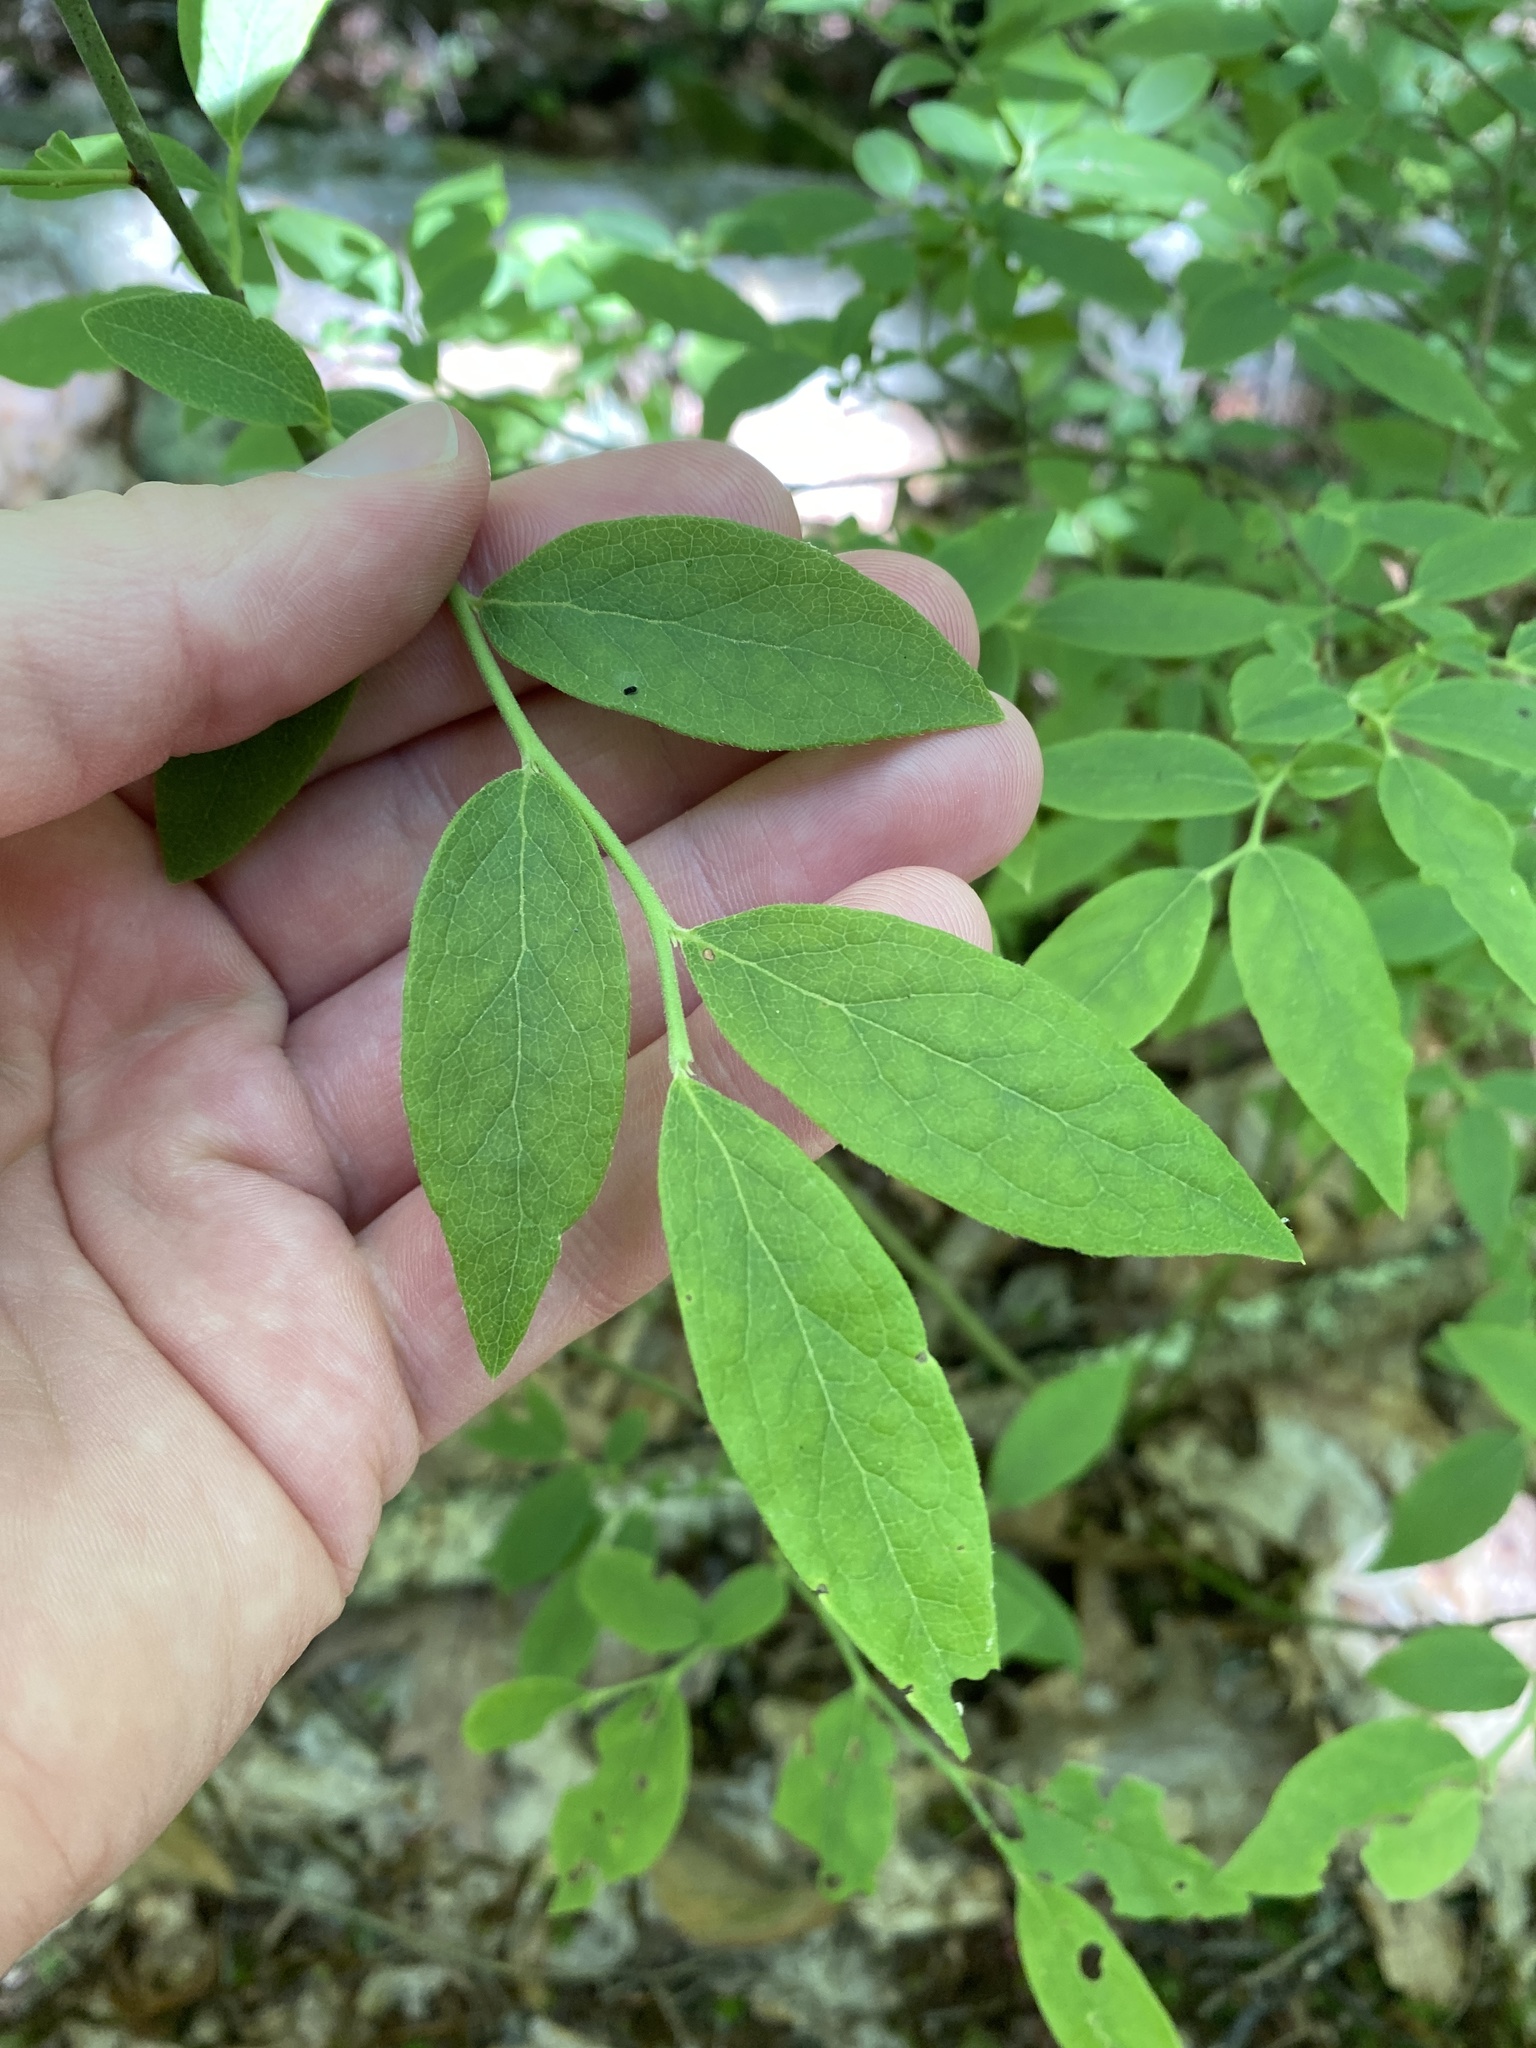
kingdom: Plantae
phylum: Tracheophyta
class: Magnoliopsida
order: Ericales
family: Ericaceae
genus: Vaccinium
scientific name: Vaccinium angustifolium
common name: Early lowbush blueberry
